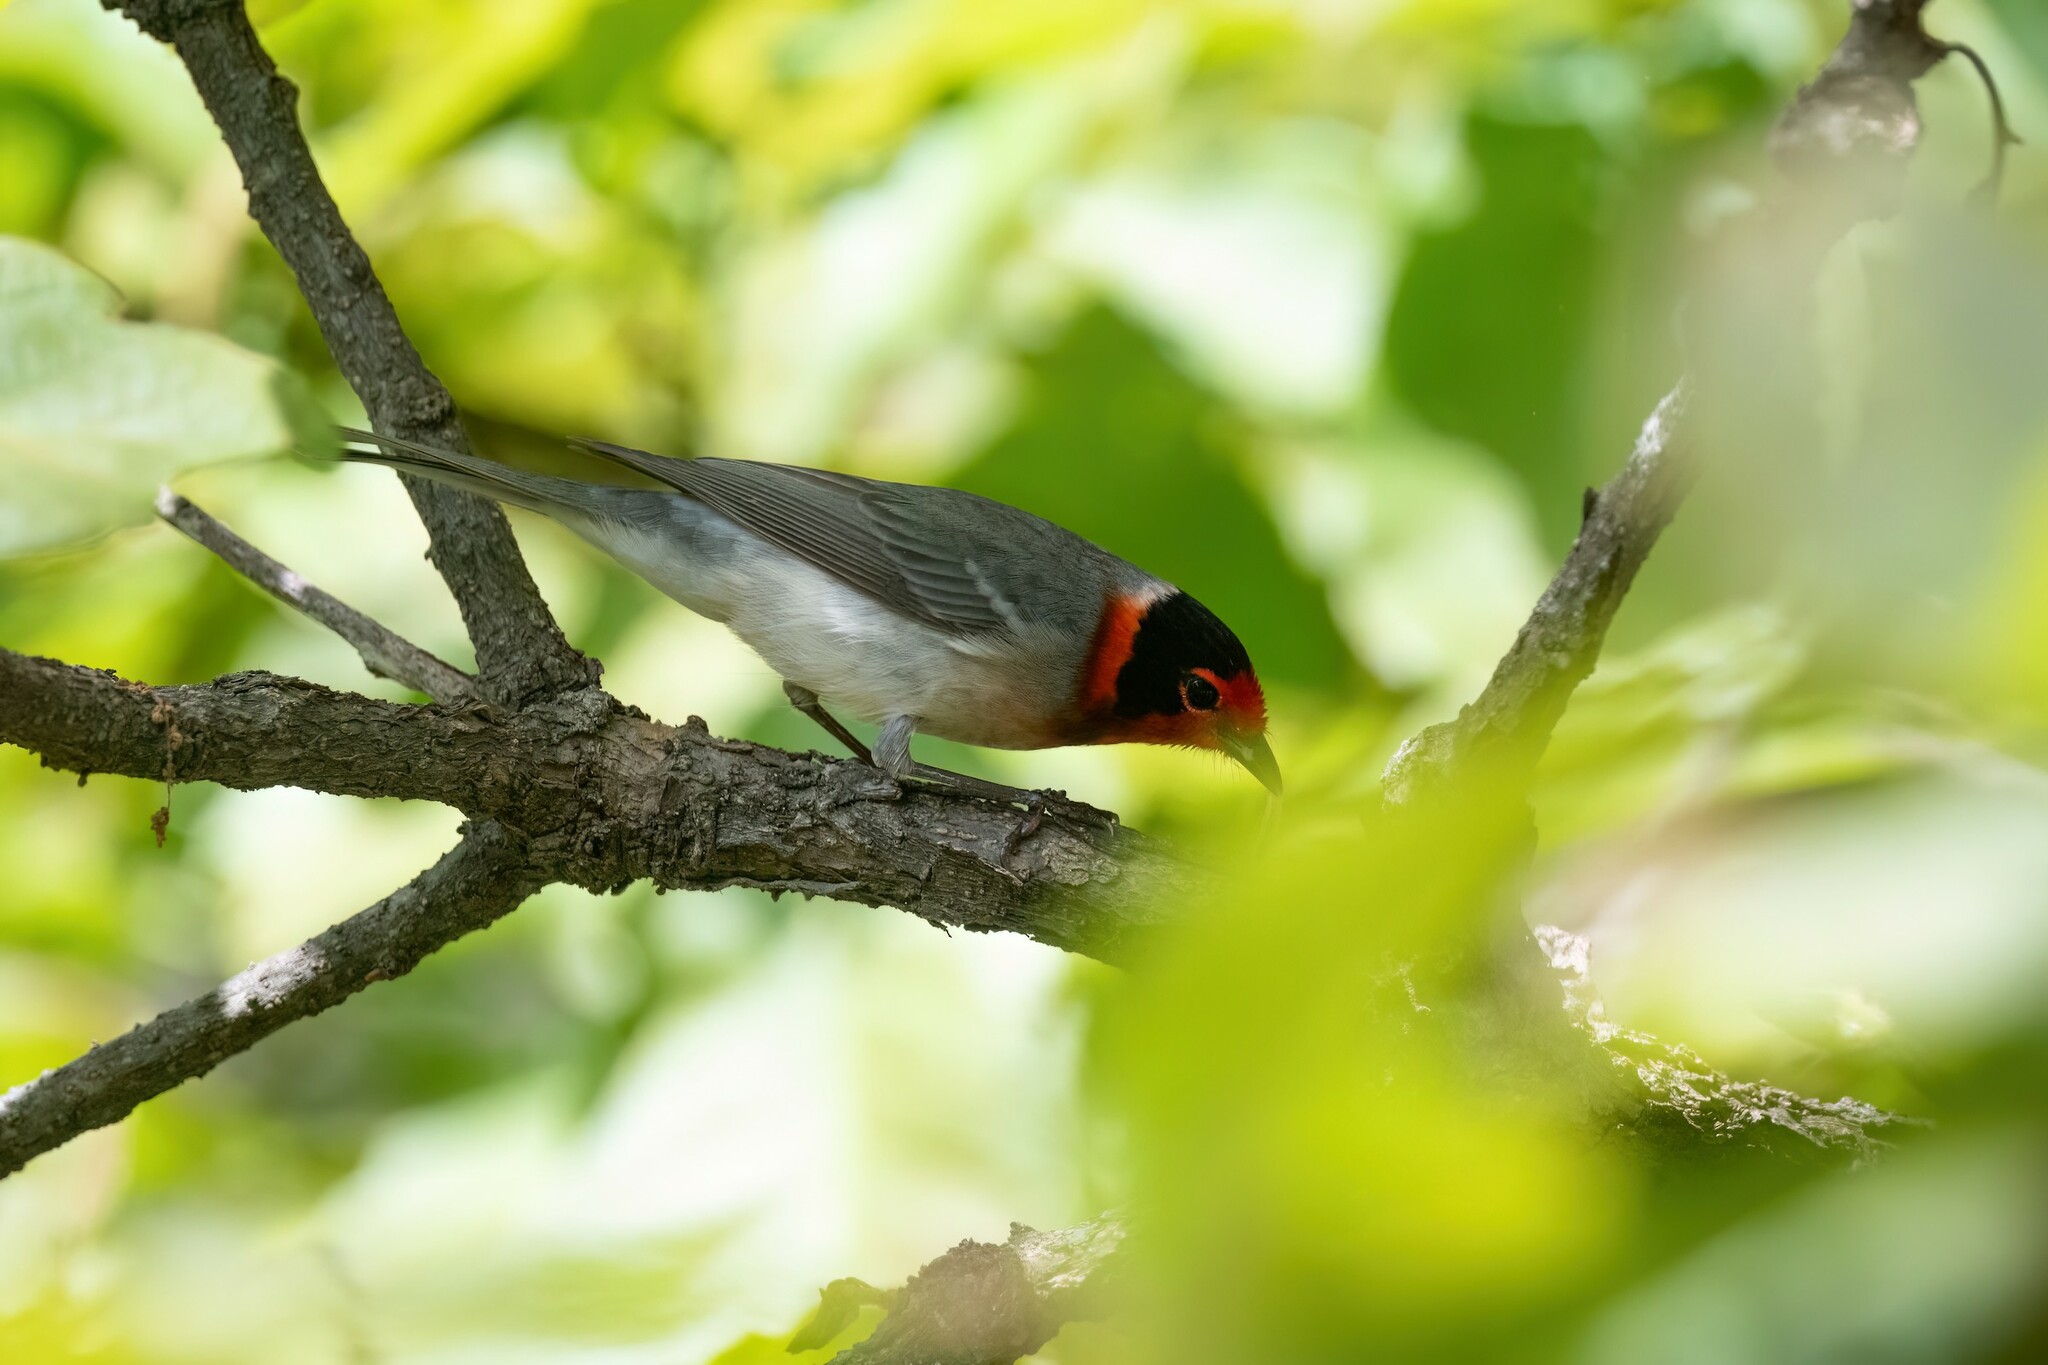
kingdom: Animalia
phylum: Chordata
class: Aves
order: Passeriformes
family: Parulidae
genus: Cardellina
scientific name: Cardellina rubrifrons
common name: Red-faced warbler
